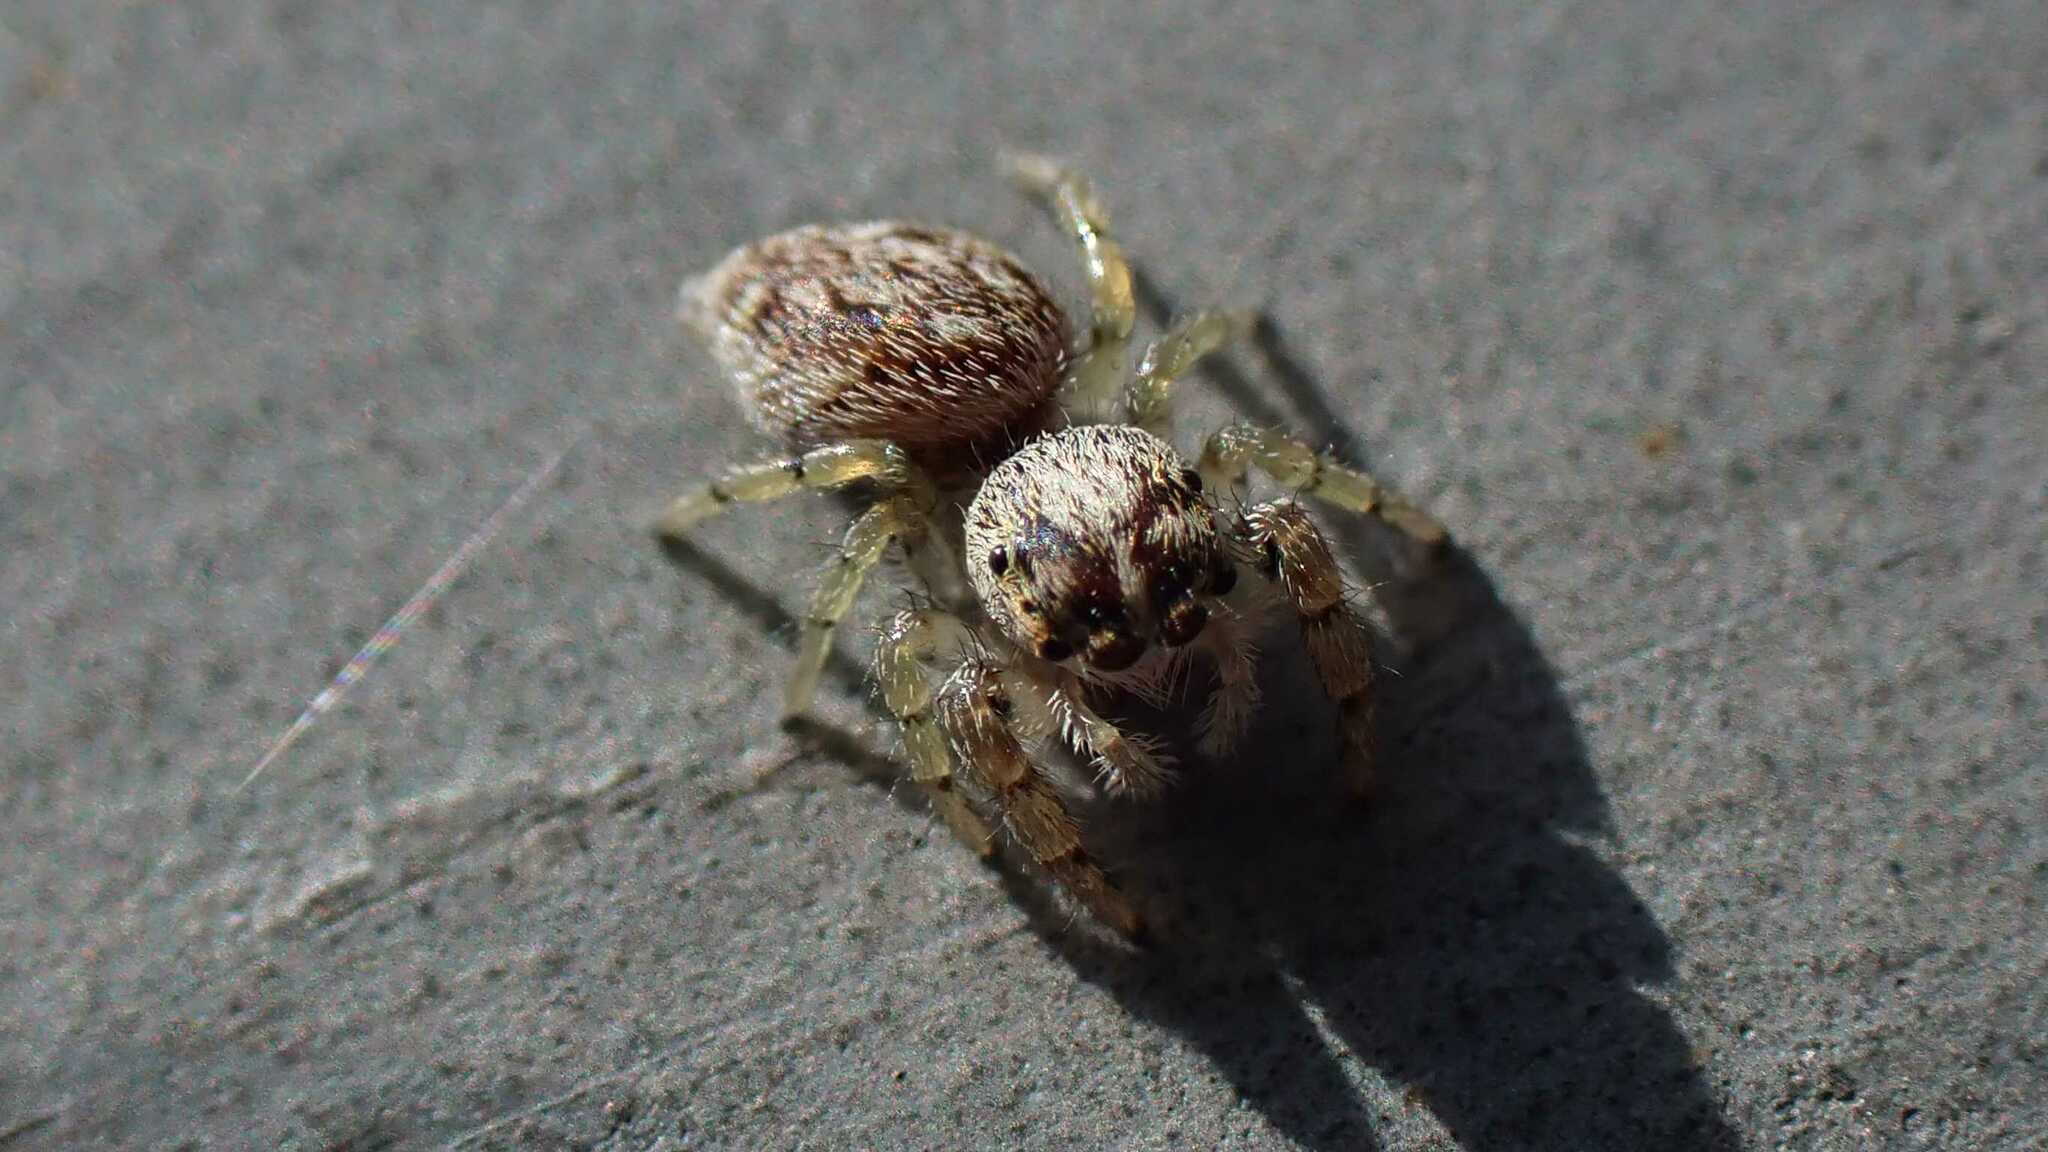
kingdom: Animalia
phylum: Arthropoda
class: Arachnida
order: Araneae
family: Salticidae
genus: Macaroeris
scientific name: Macaroeris nidicolens
